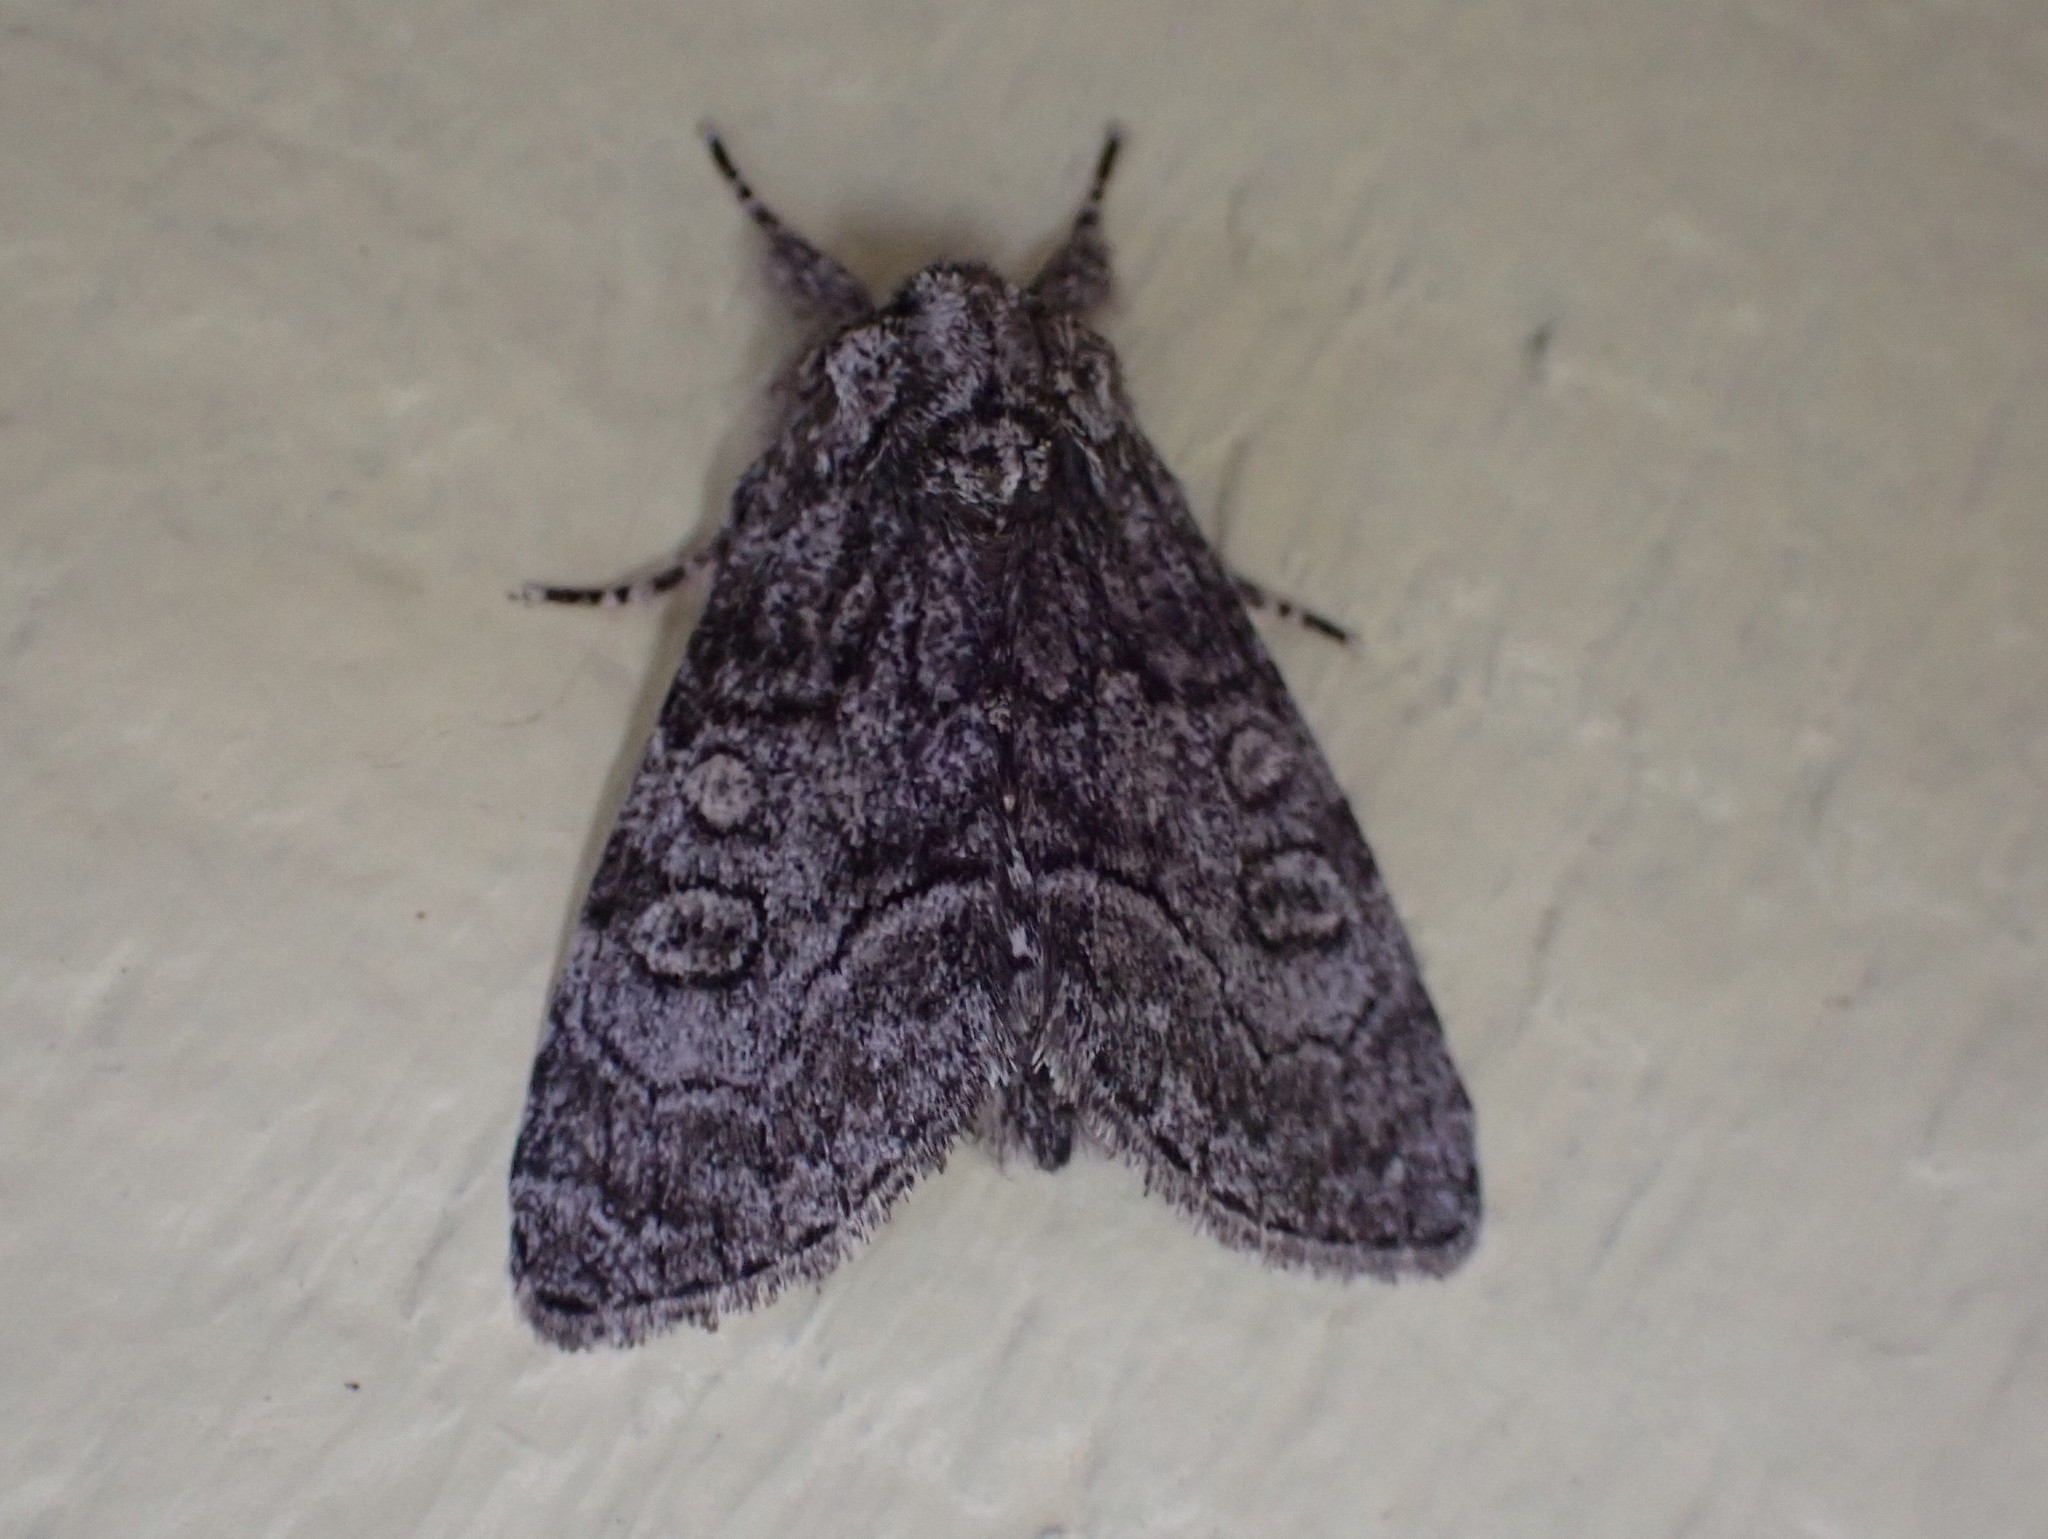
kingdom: Animalia
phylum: Arthropoda
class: Insecta
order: Lepidoptera
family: Noctuidae
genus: Raphia
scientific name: Raphia frater
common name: Brother
